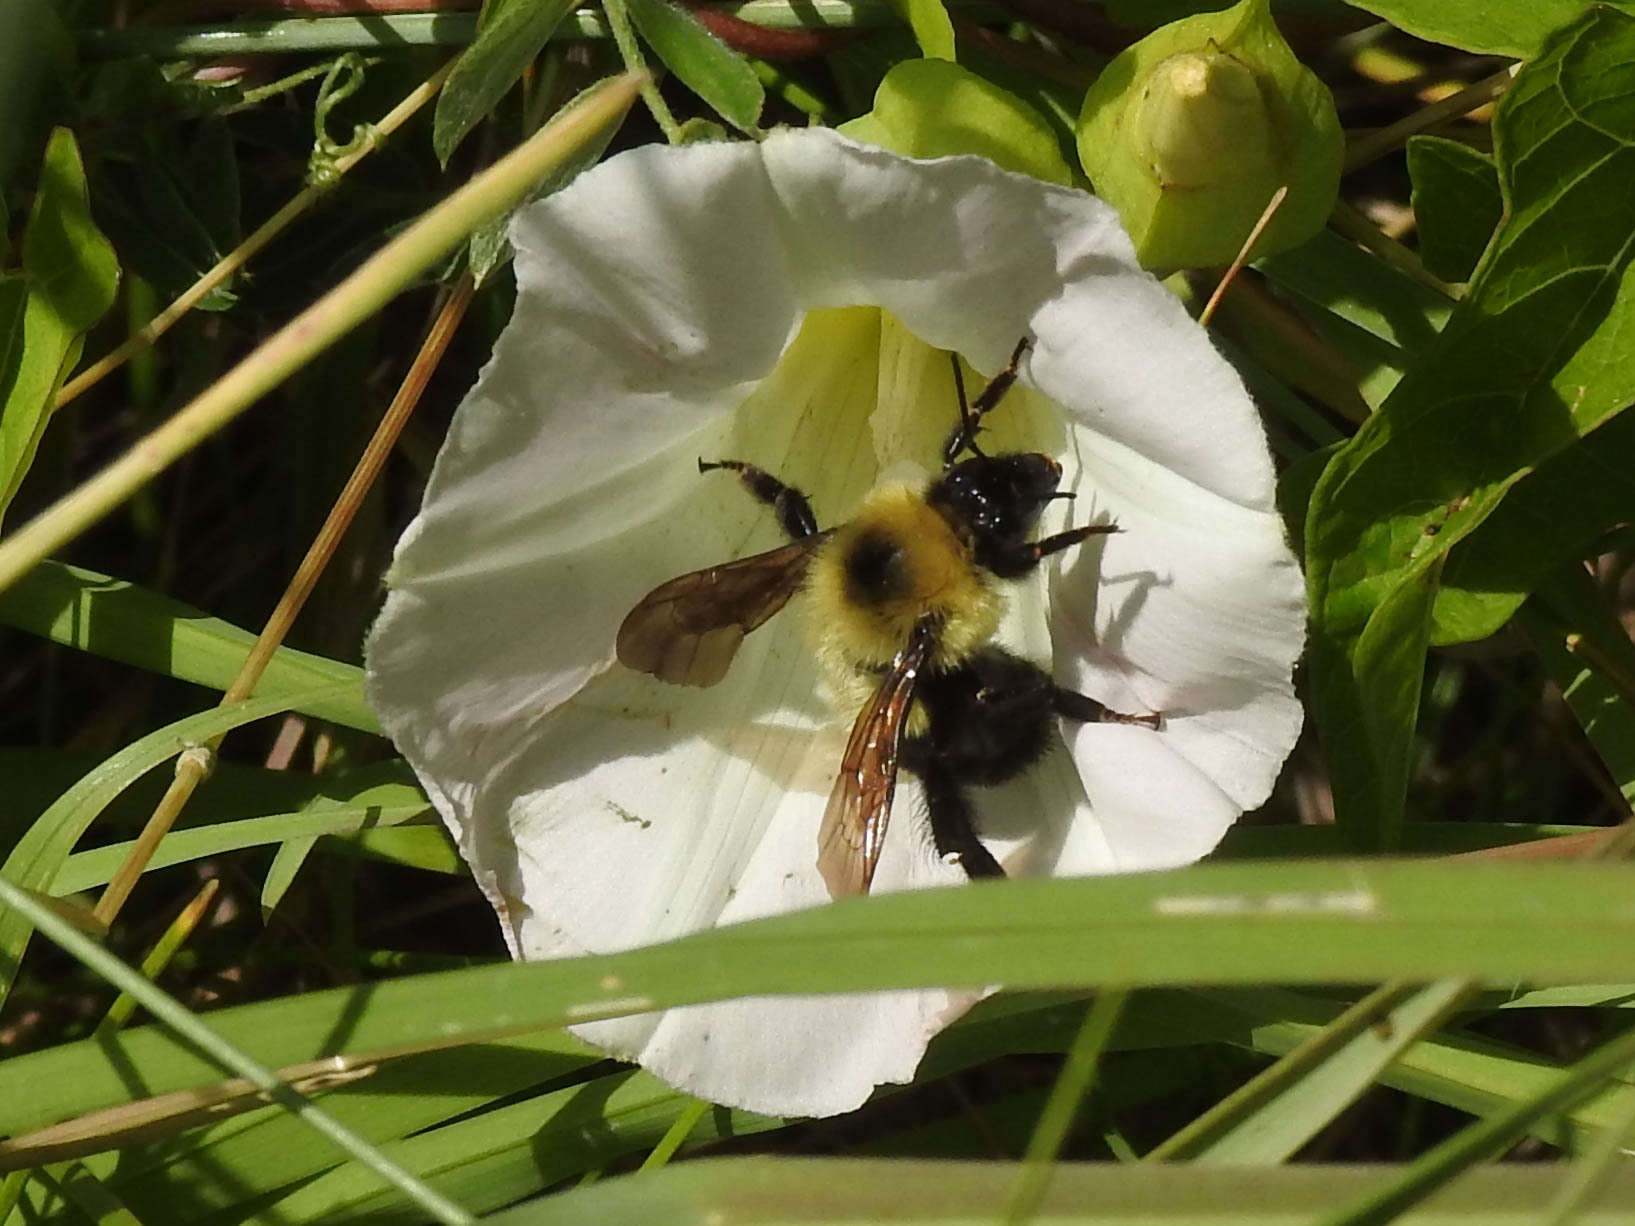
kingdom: Animalia
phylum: Arthropoda
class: Insecta
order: Hymenoptera
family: Apidae
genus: Bombus
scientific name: Bombus bimaculatus
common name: Two-spotted bumble bee
